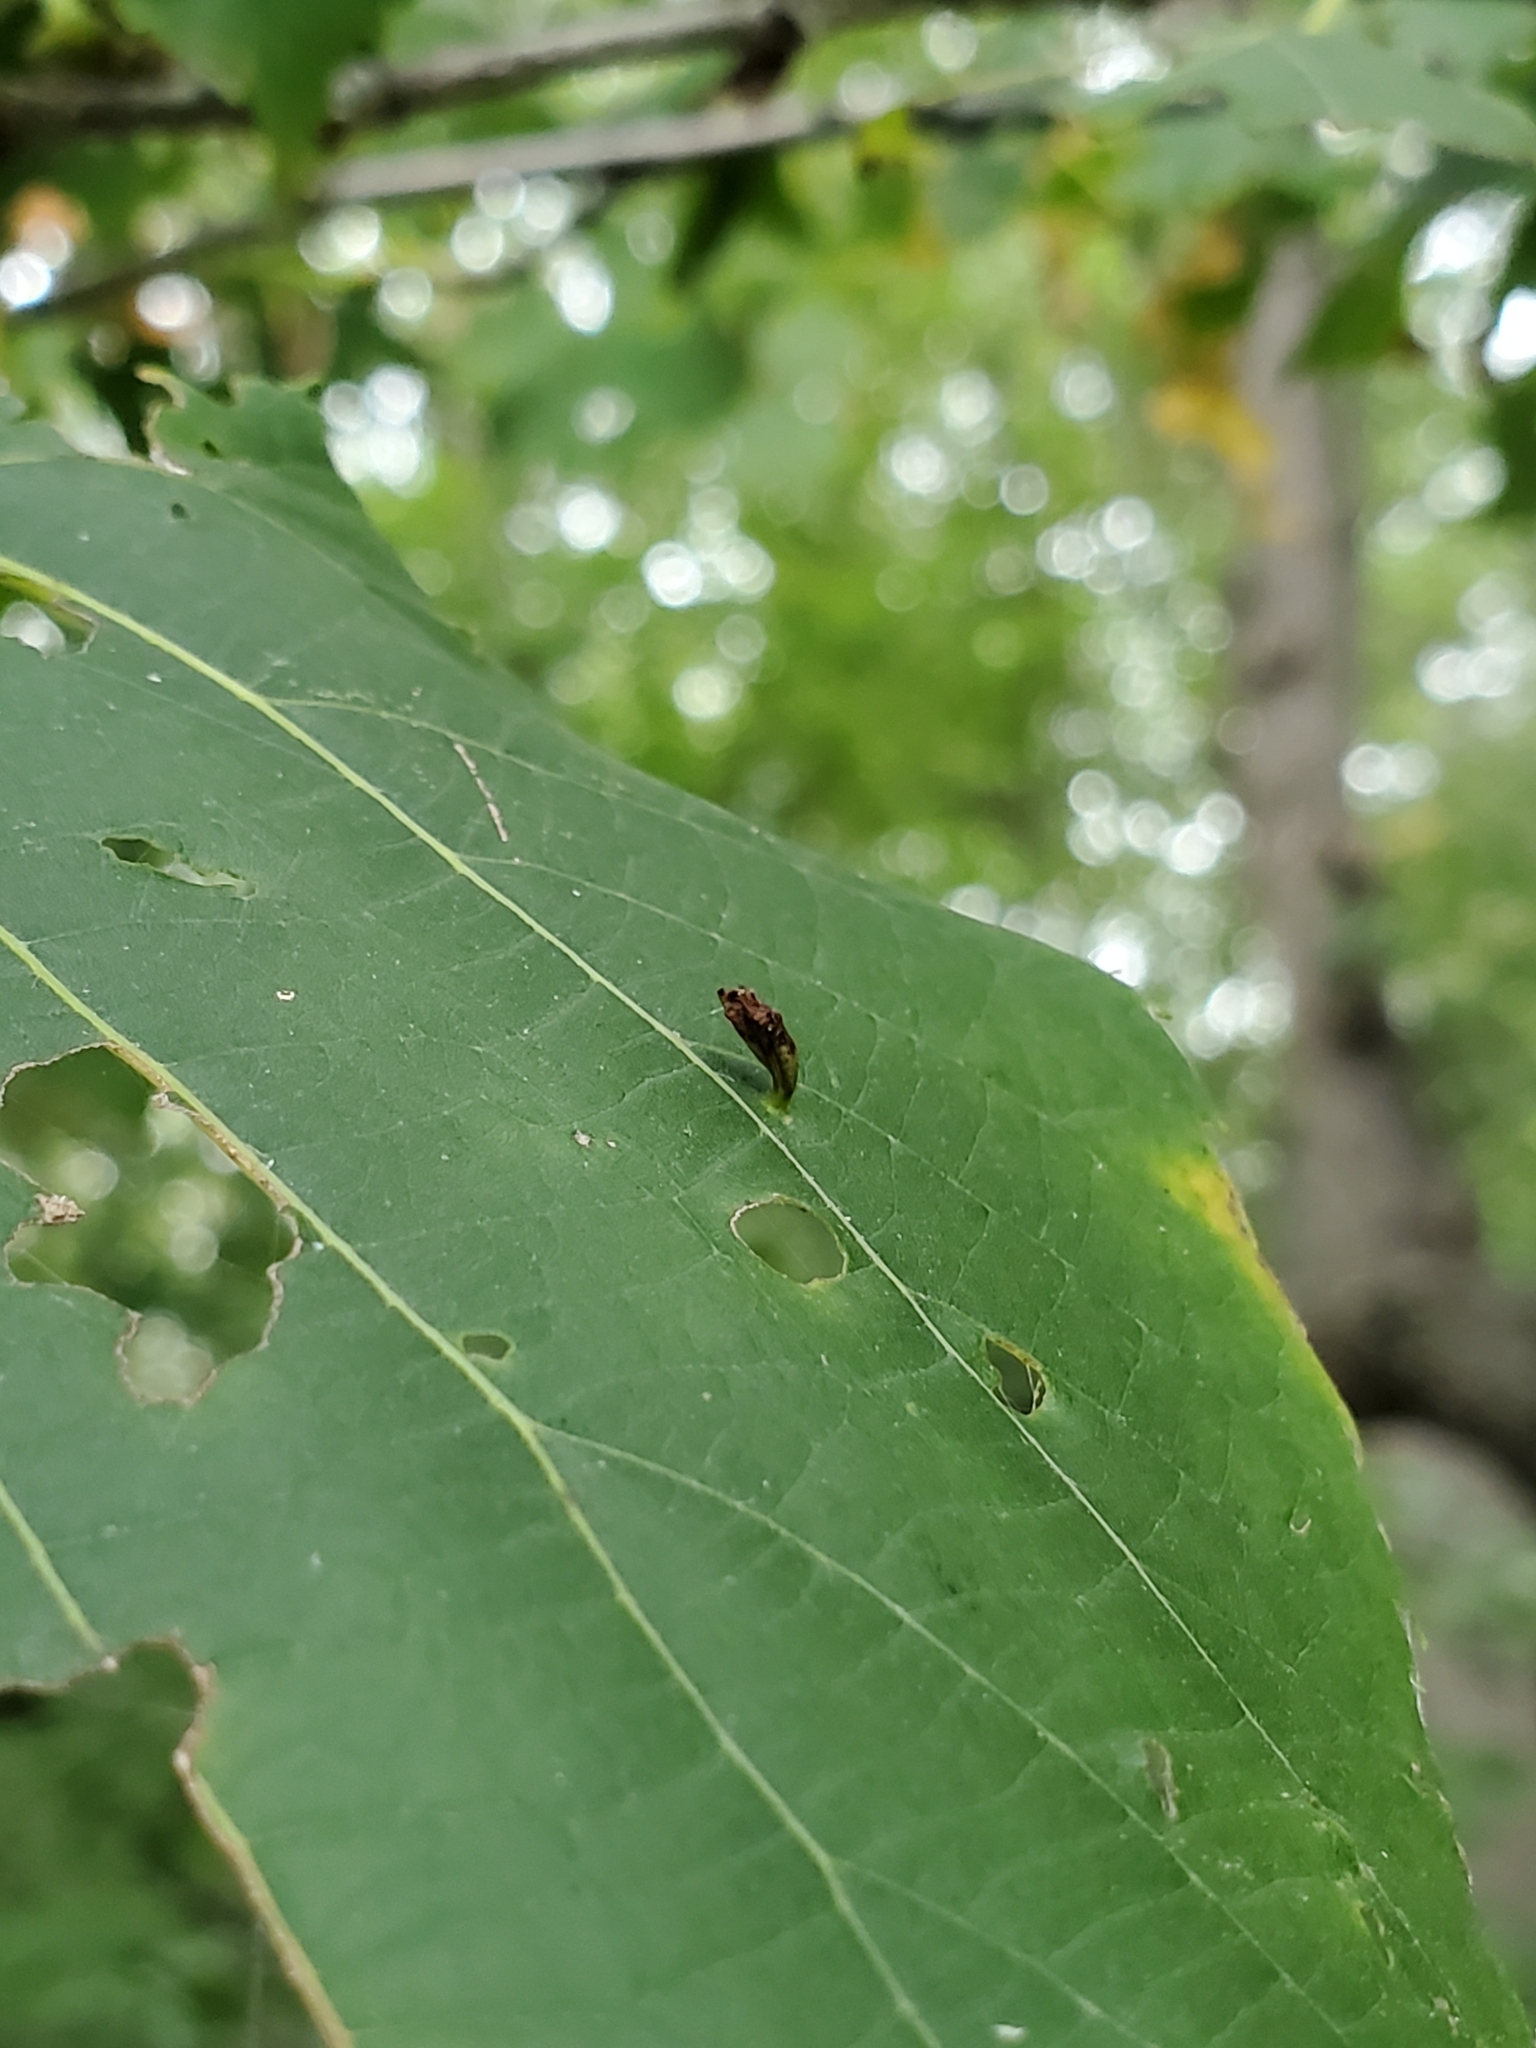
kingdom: Animalia
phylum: Arthropoda
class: Arachnida
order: Trombidiformes
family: Eriophyidae
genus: Eriophyes
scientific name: Eriophyes tiliae
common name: Red nail gall mite
